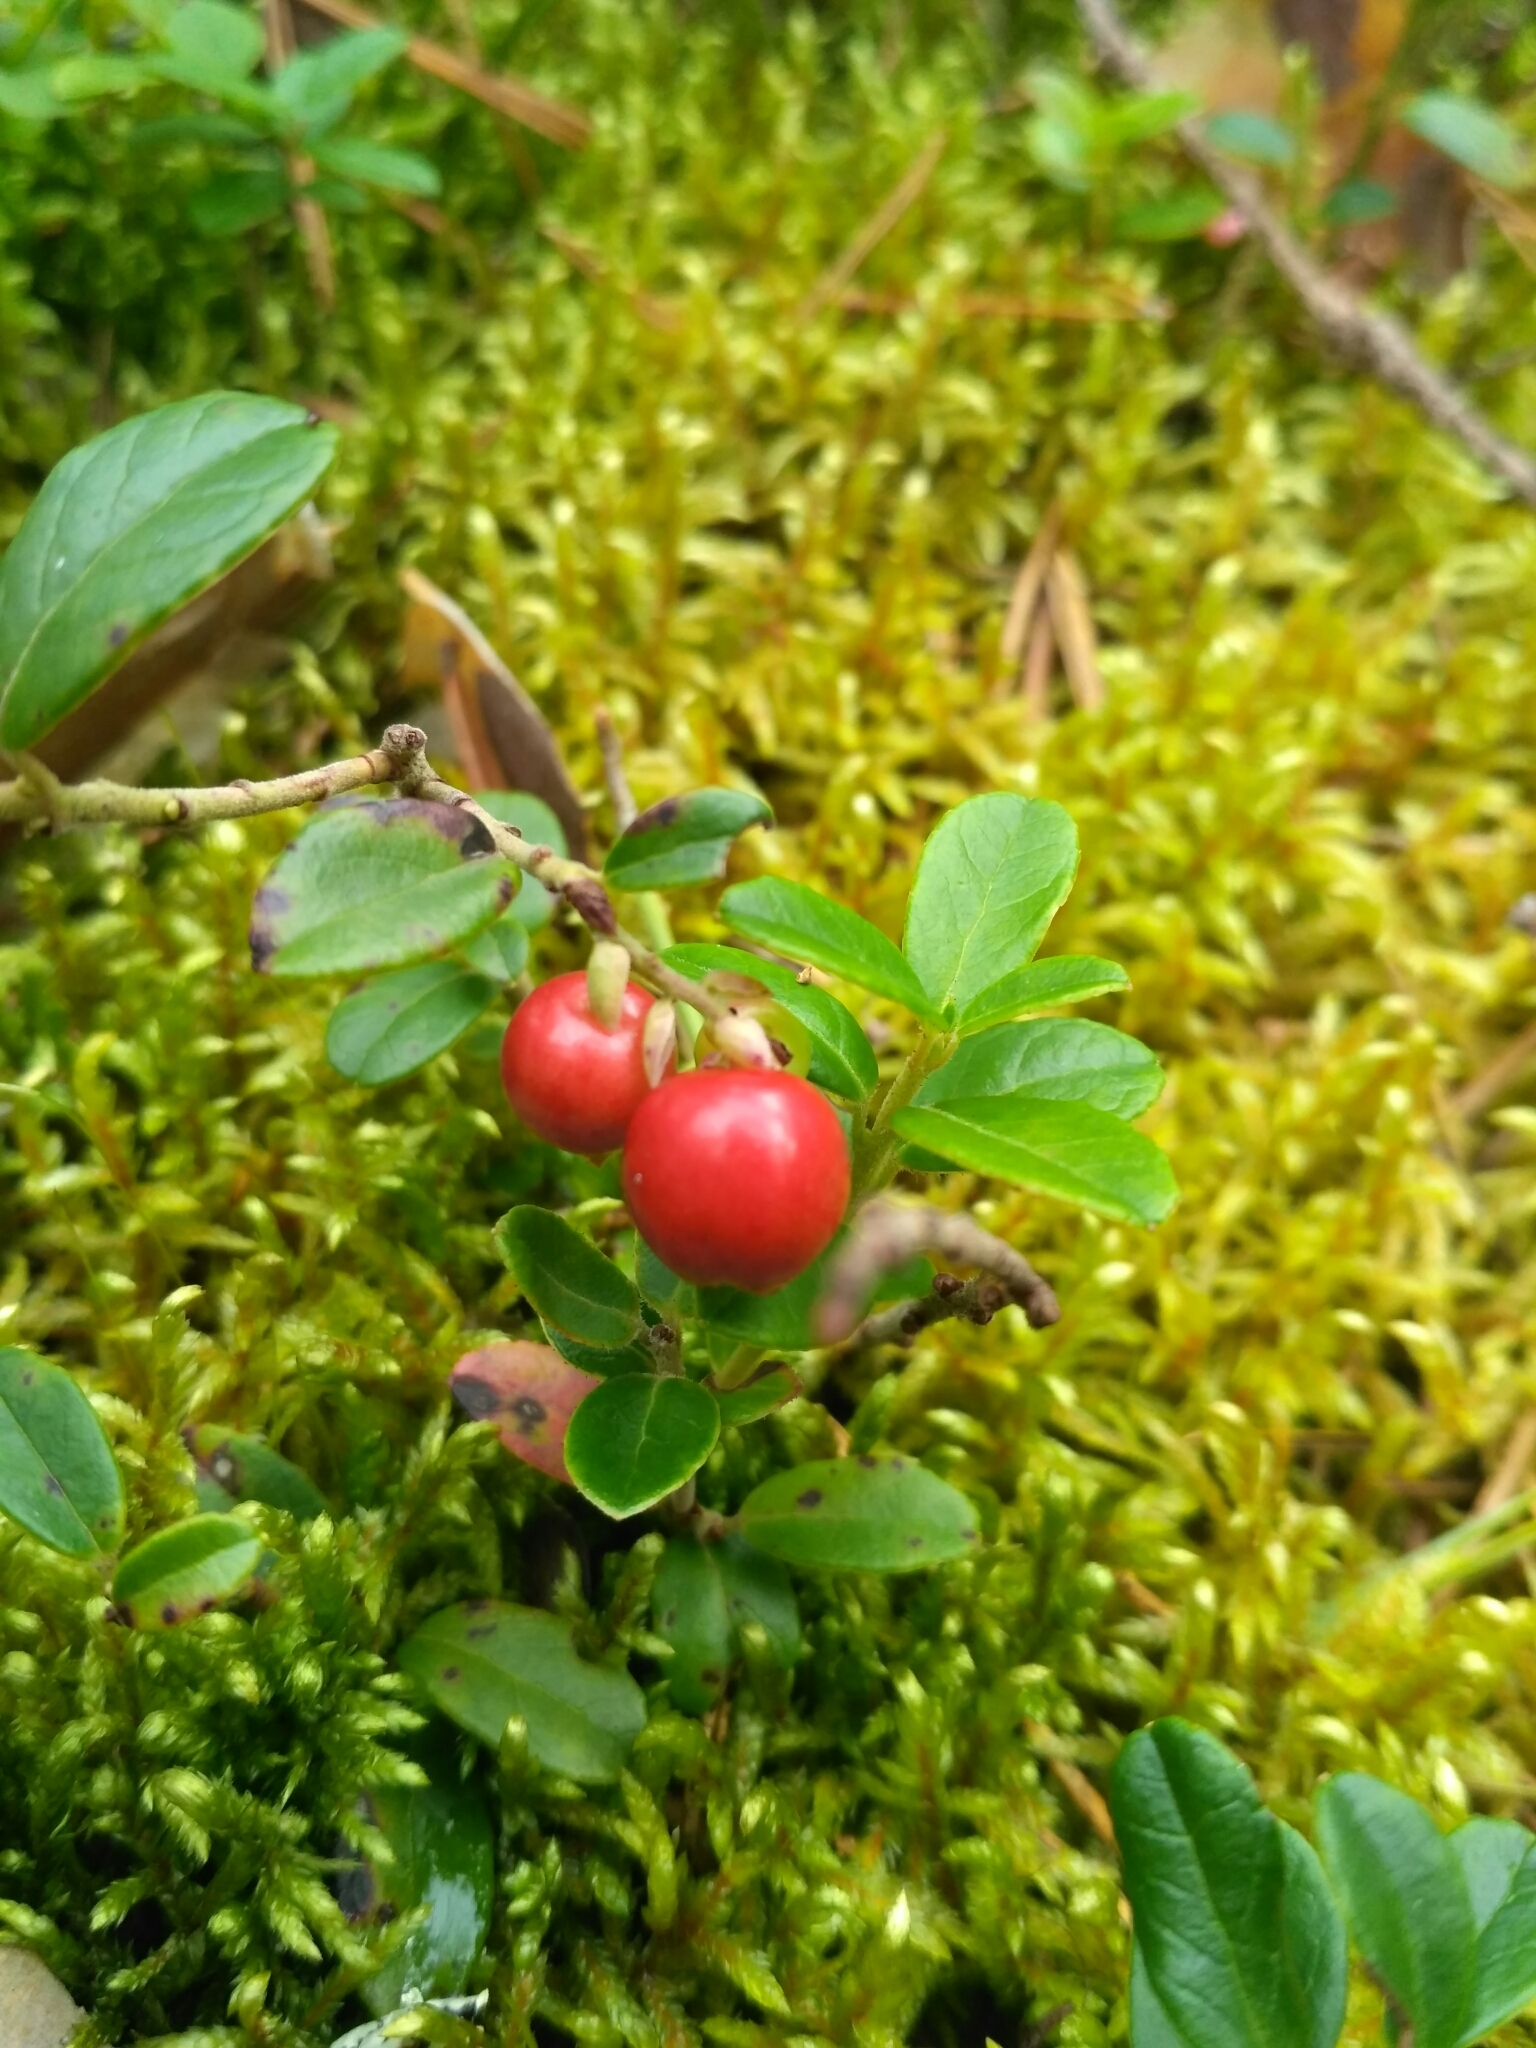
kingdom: Plantae
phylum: Tracheophyta
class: Magnoliopsida
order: Ericales
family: Ericaceae
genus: Vaccinium
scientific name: Vaccinium vitis-idaea
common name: Cowberry
